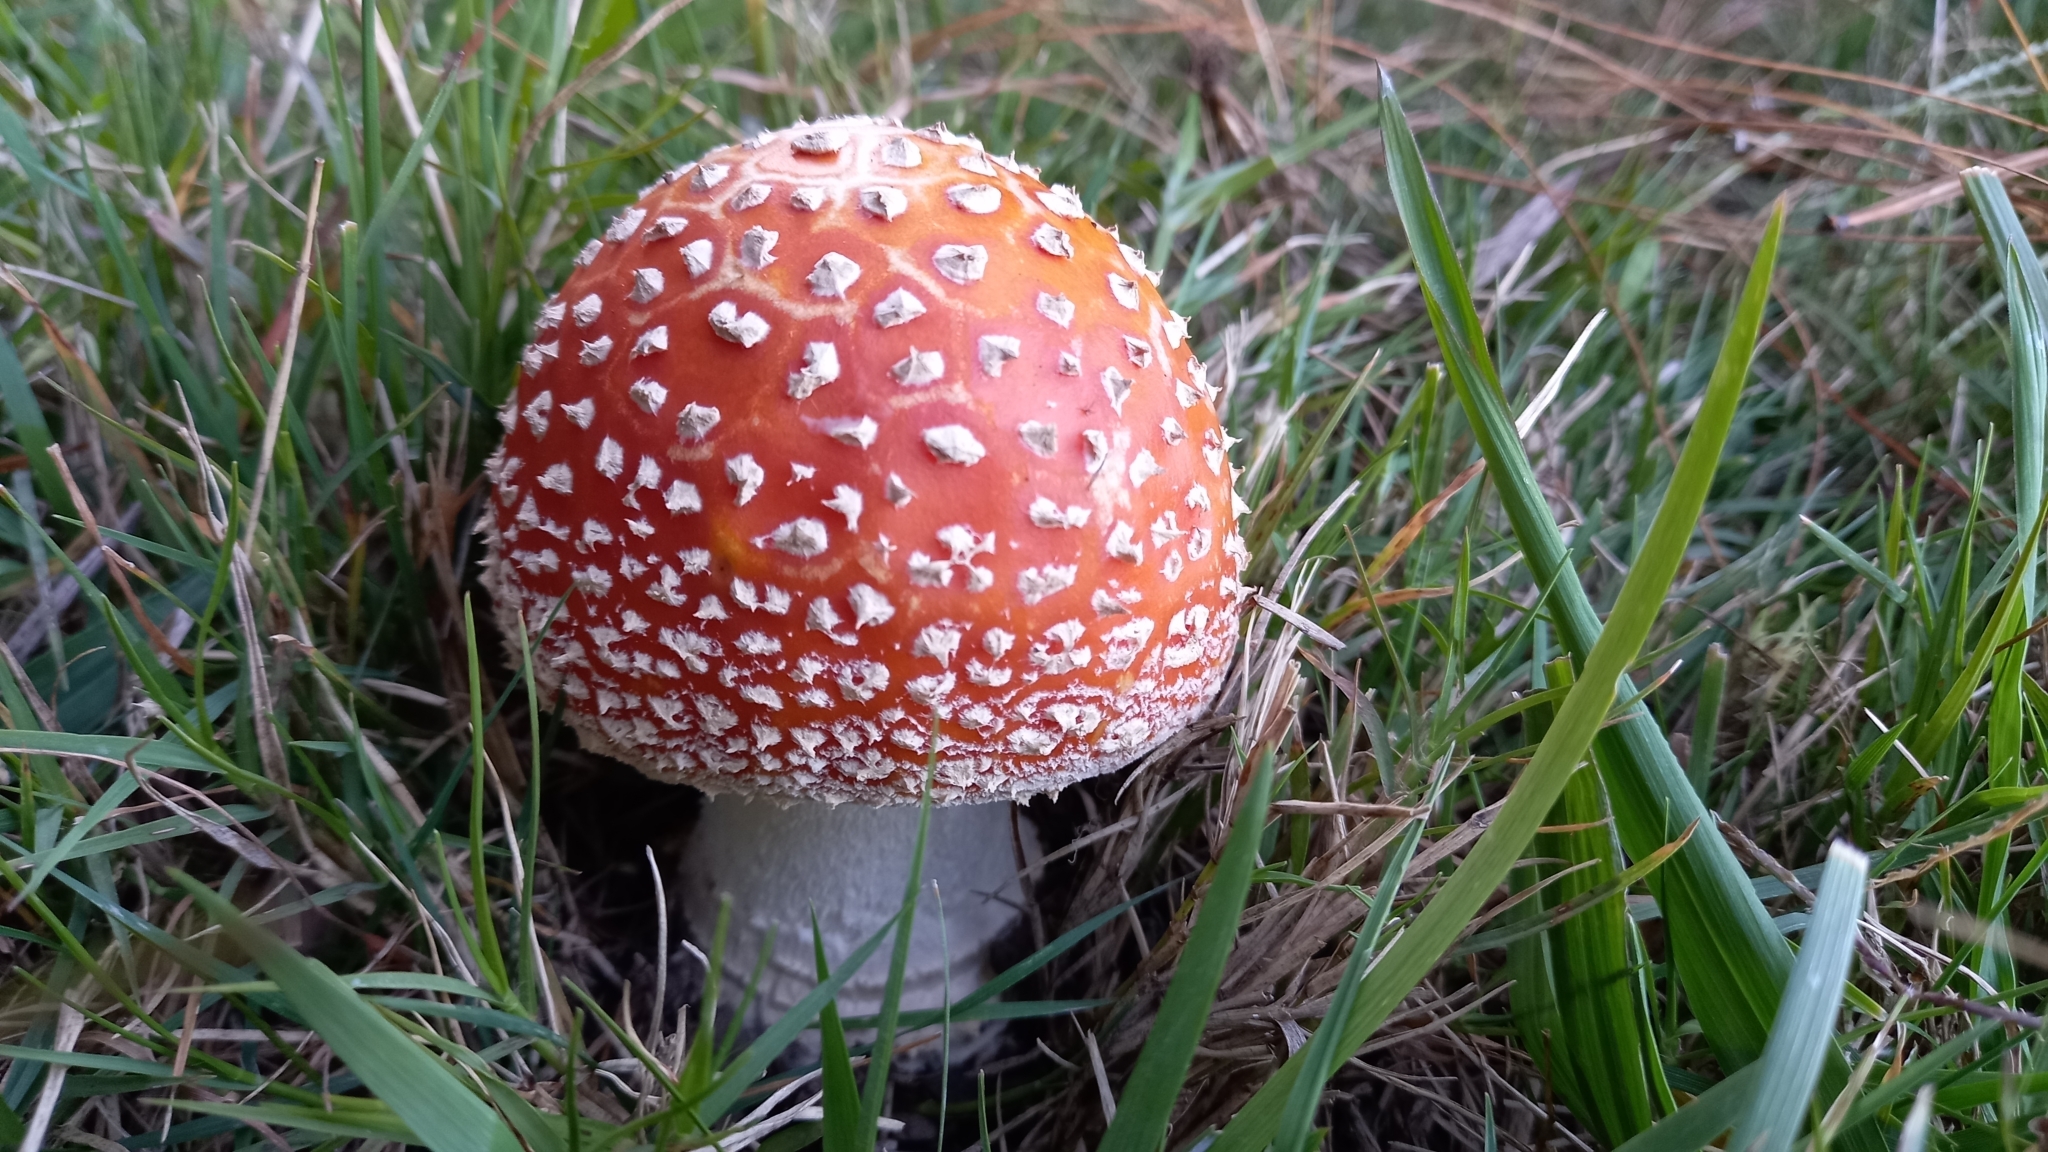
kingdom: Fungi
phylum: Basidiomycota
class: Agaricomycetes
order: Agaricales
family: Amanitaceae
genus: Amanita
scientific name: Amanita muscaria
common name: Fly agaric
